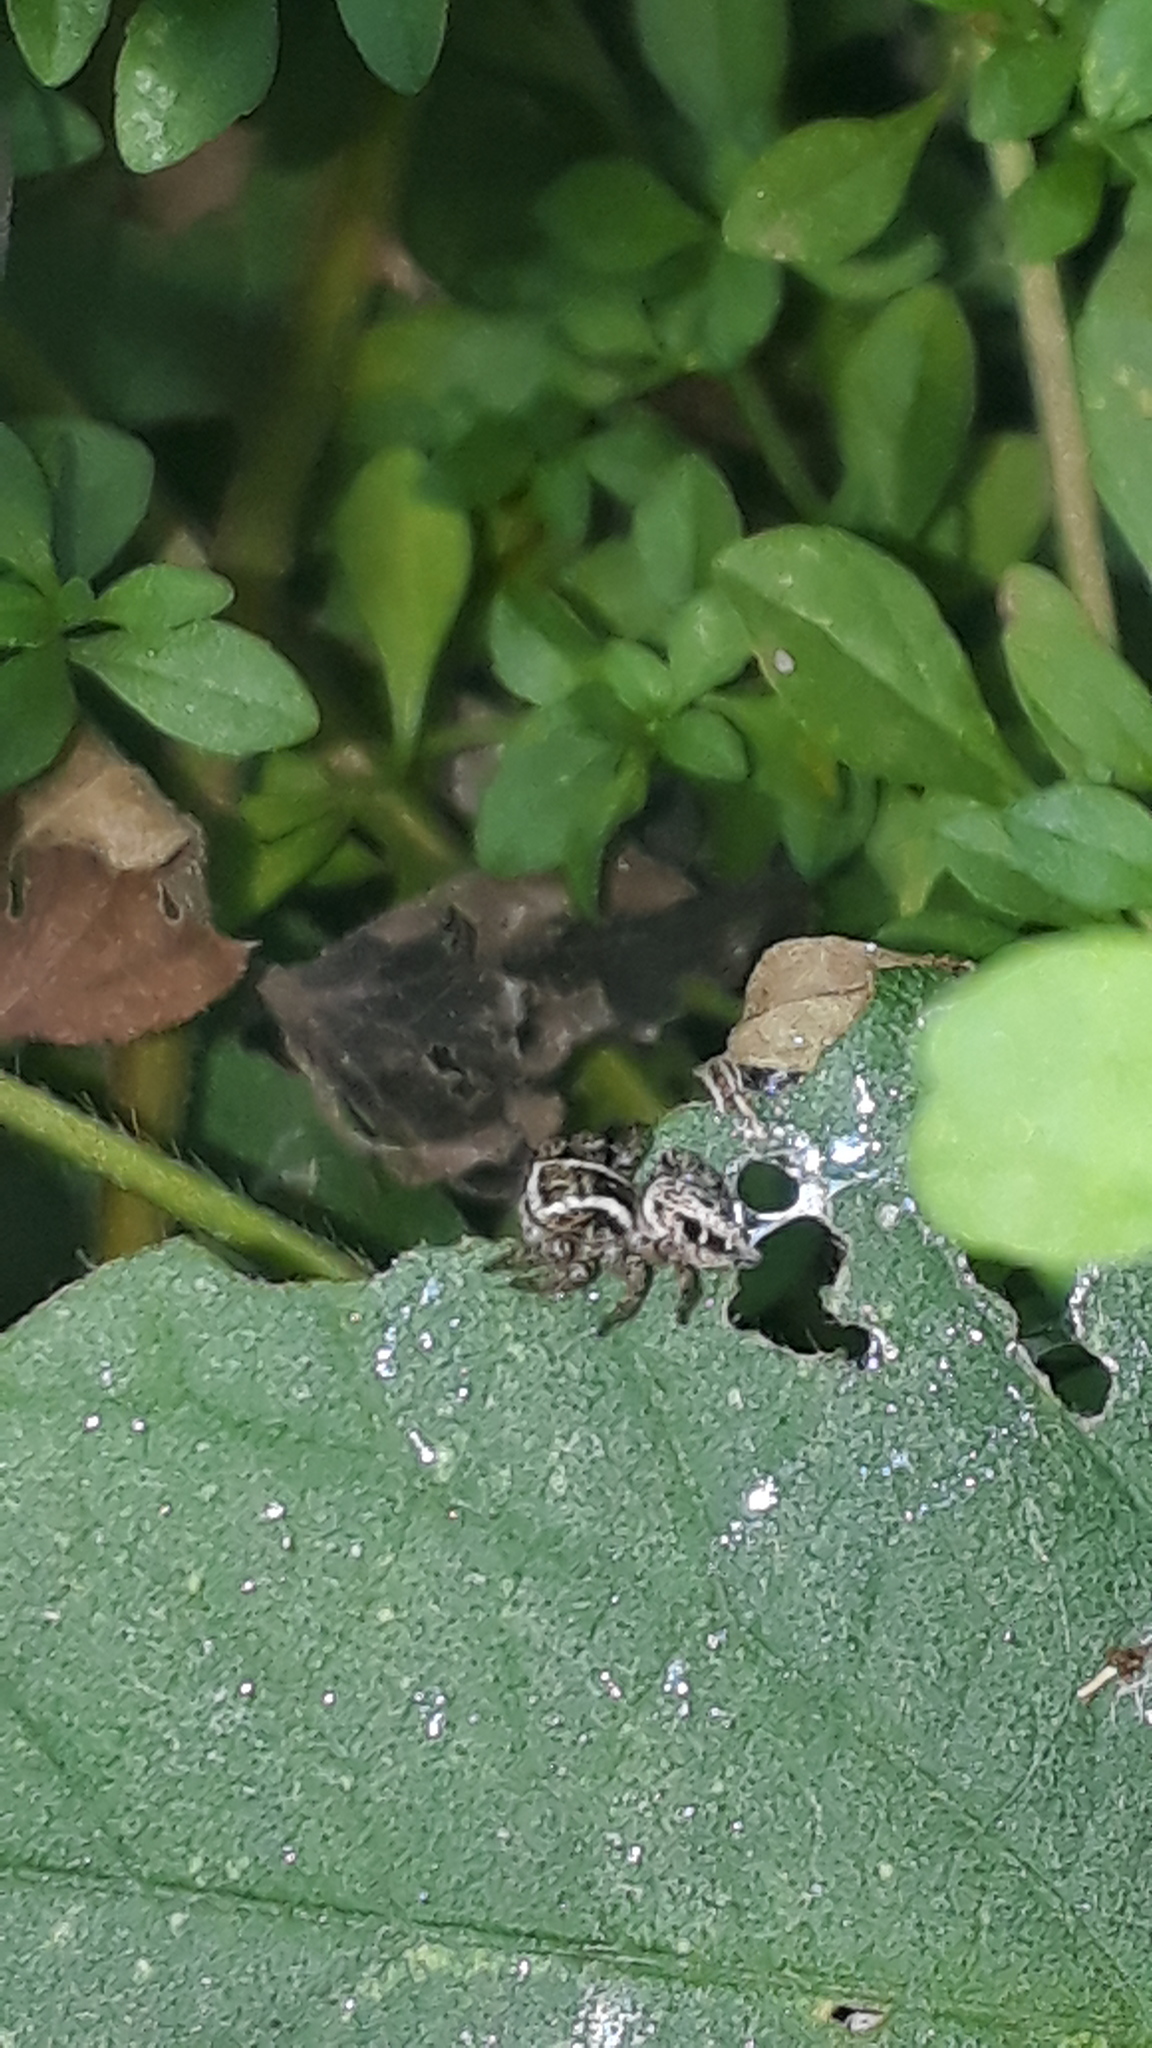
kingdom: Animalia
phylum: Arthropoda
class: Arachnida
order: Araneae
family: Salticidae
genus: Aphirape
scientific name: Aphirape misionensis
